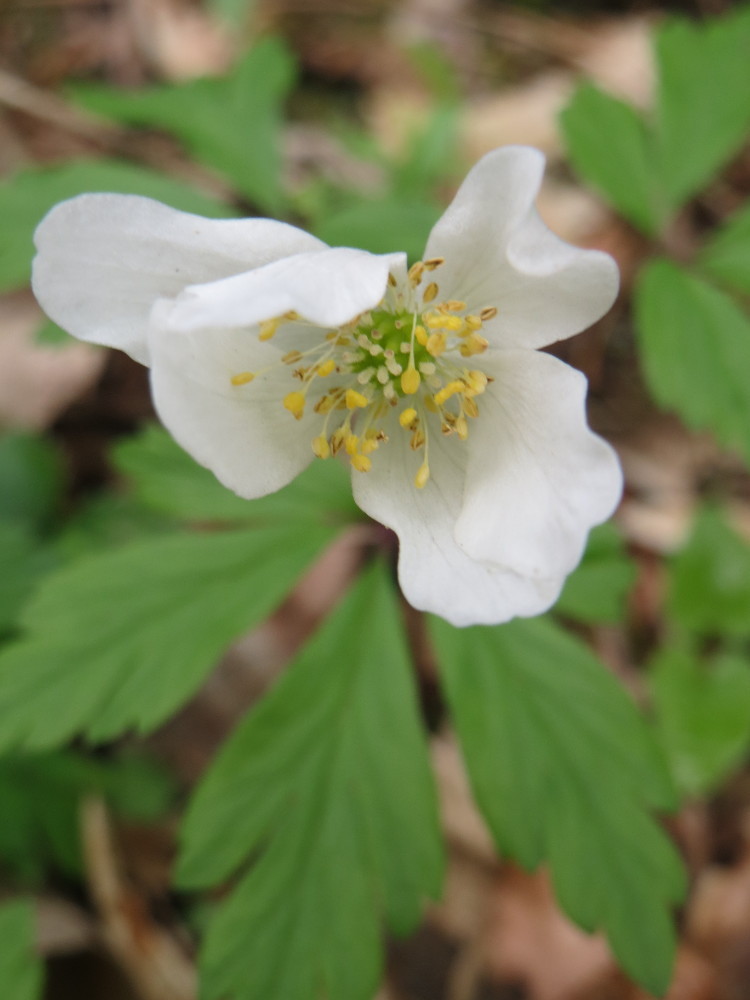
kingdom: Plantae
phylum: Tracheophyta
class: Magnoliopsida
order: Ranunculales
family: Ranunculaceae
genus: Anemone
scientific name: Anemone nemorosa
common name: Wood anemone
